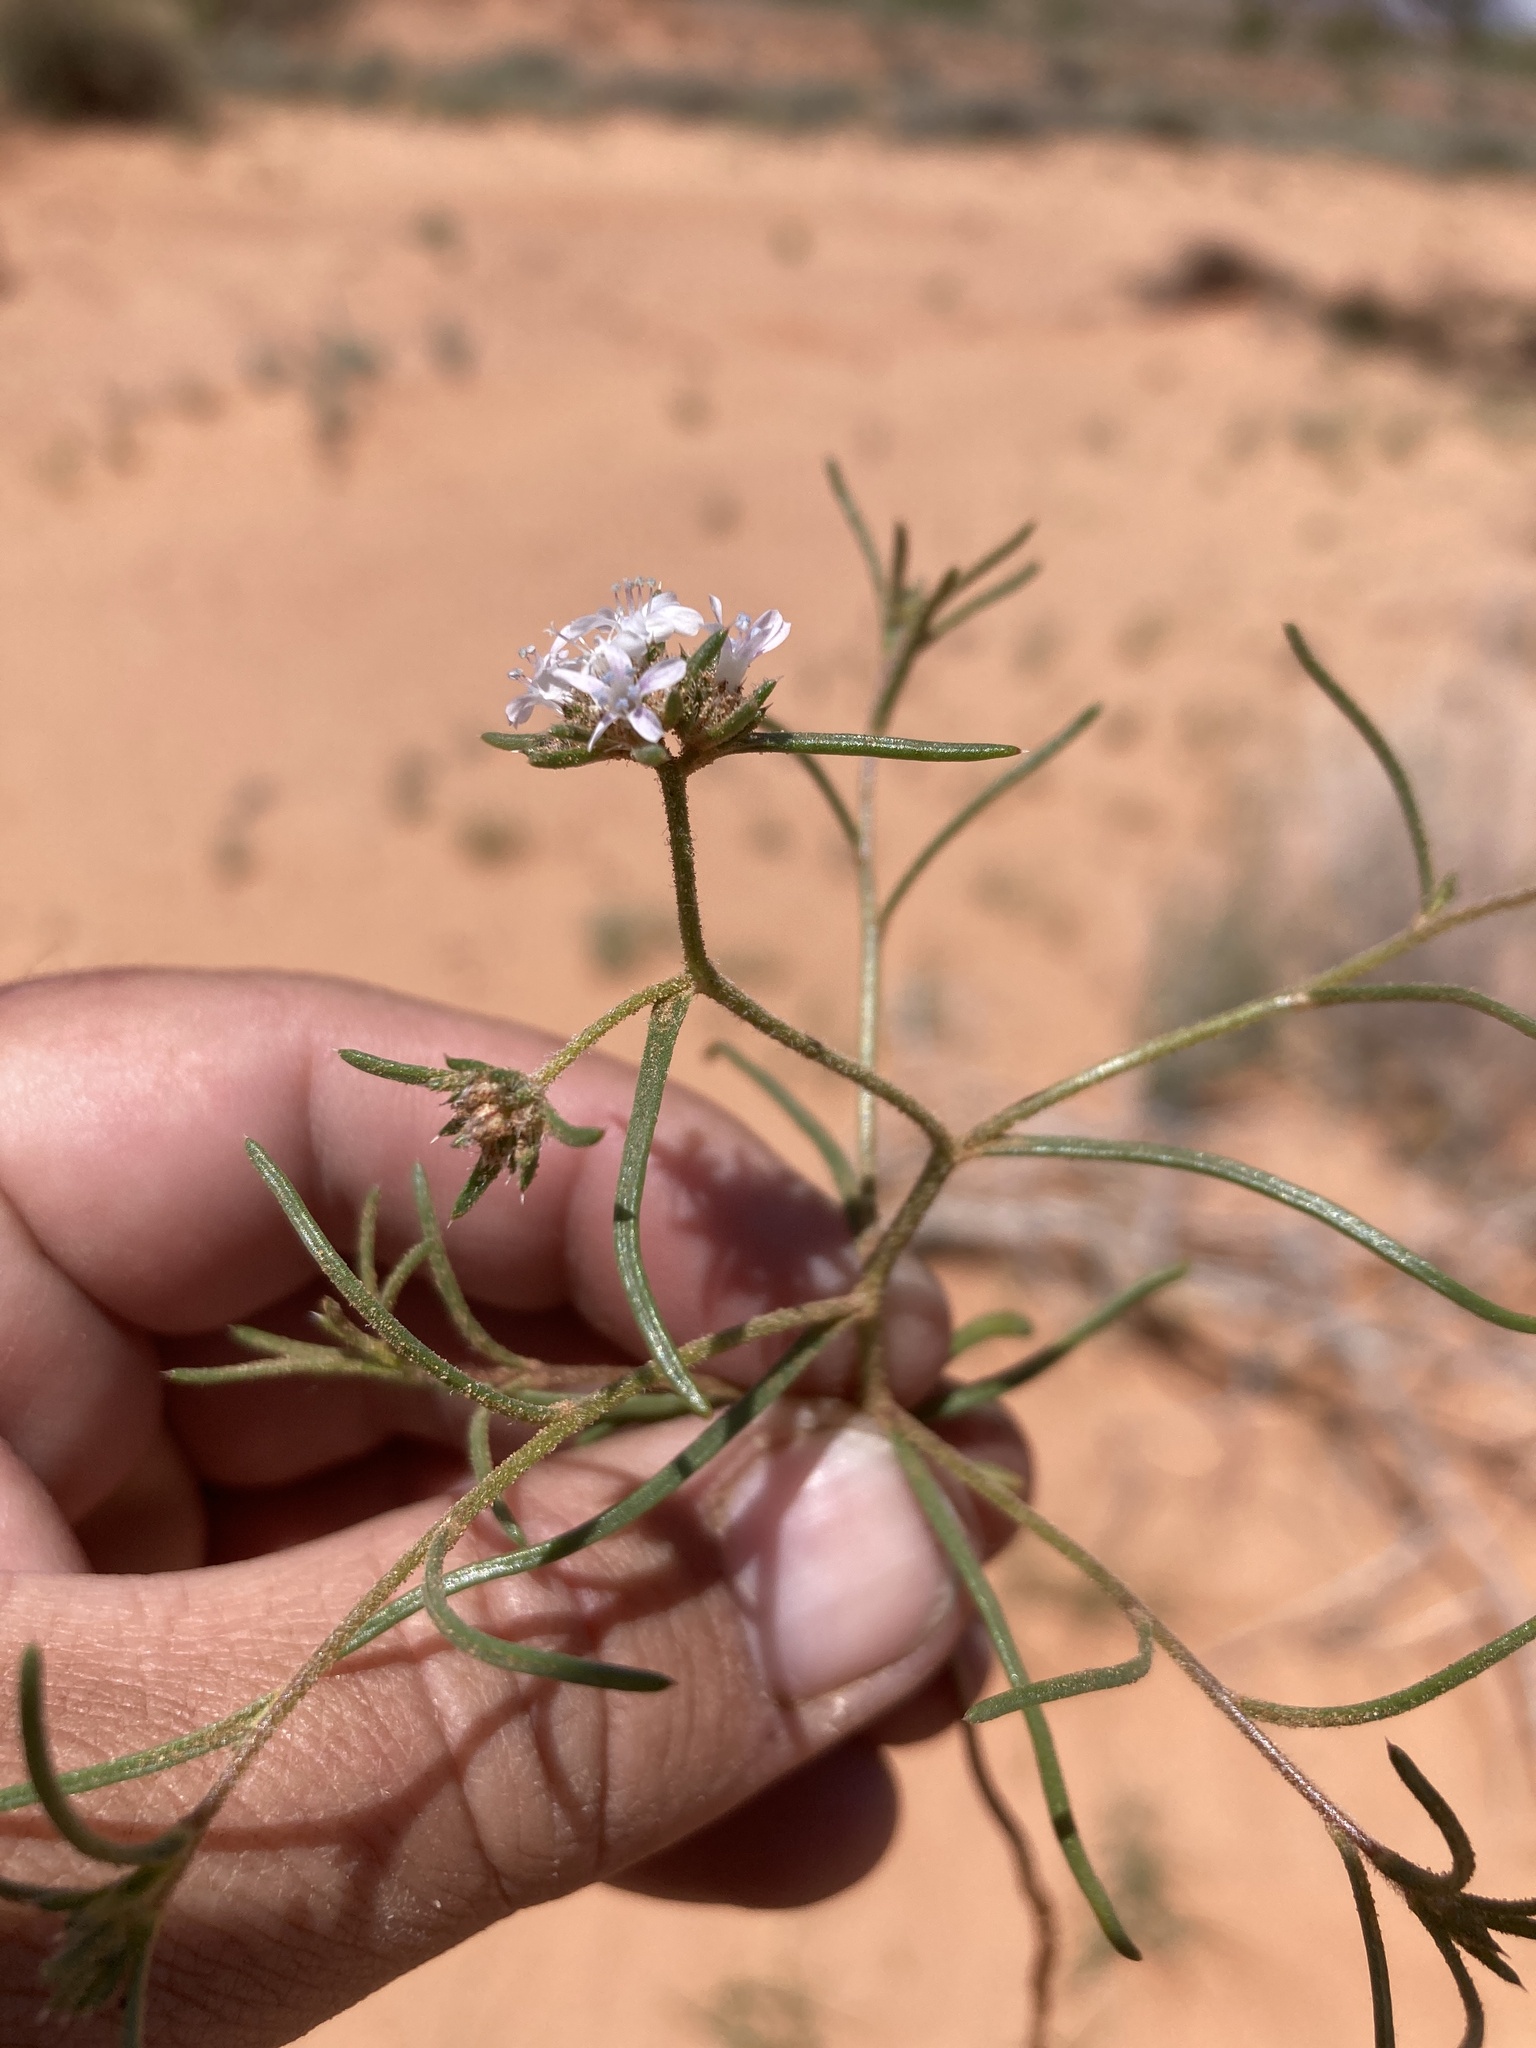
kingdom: Plantae
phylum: Tracheophyta
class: Magnoliopsida
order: Ericales
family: Polemoniaceae
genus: Ipomopsis
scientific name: Ipomopsis gunnisonii
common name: Sand-dune gilia
